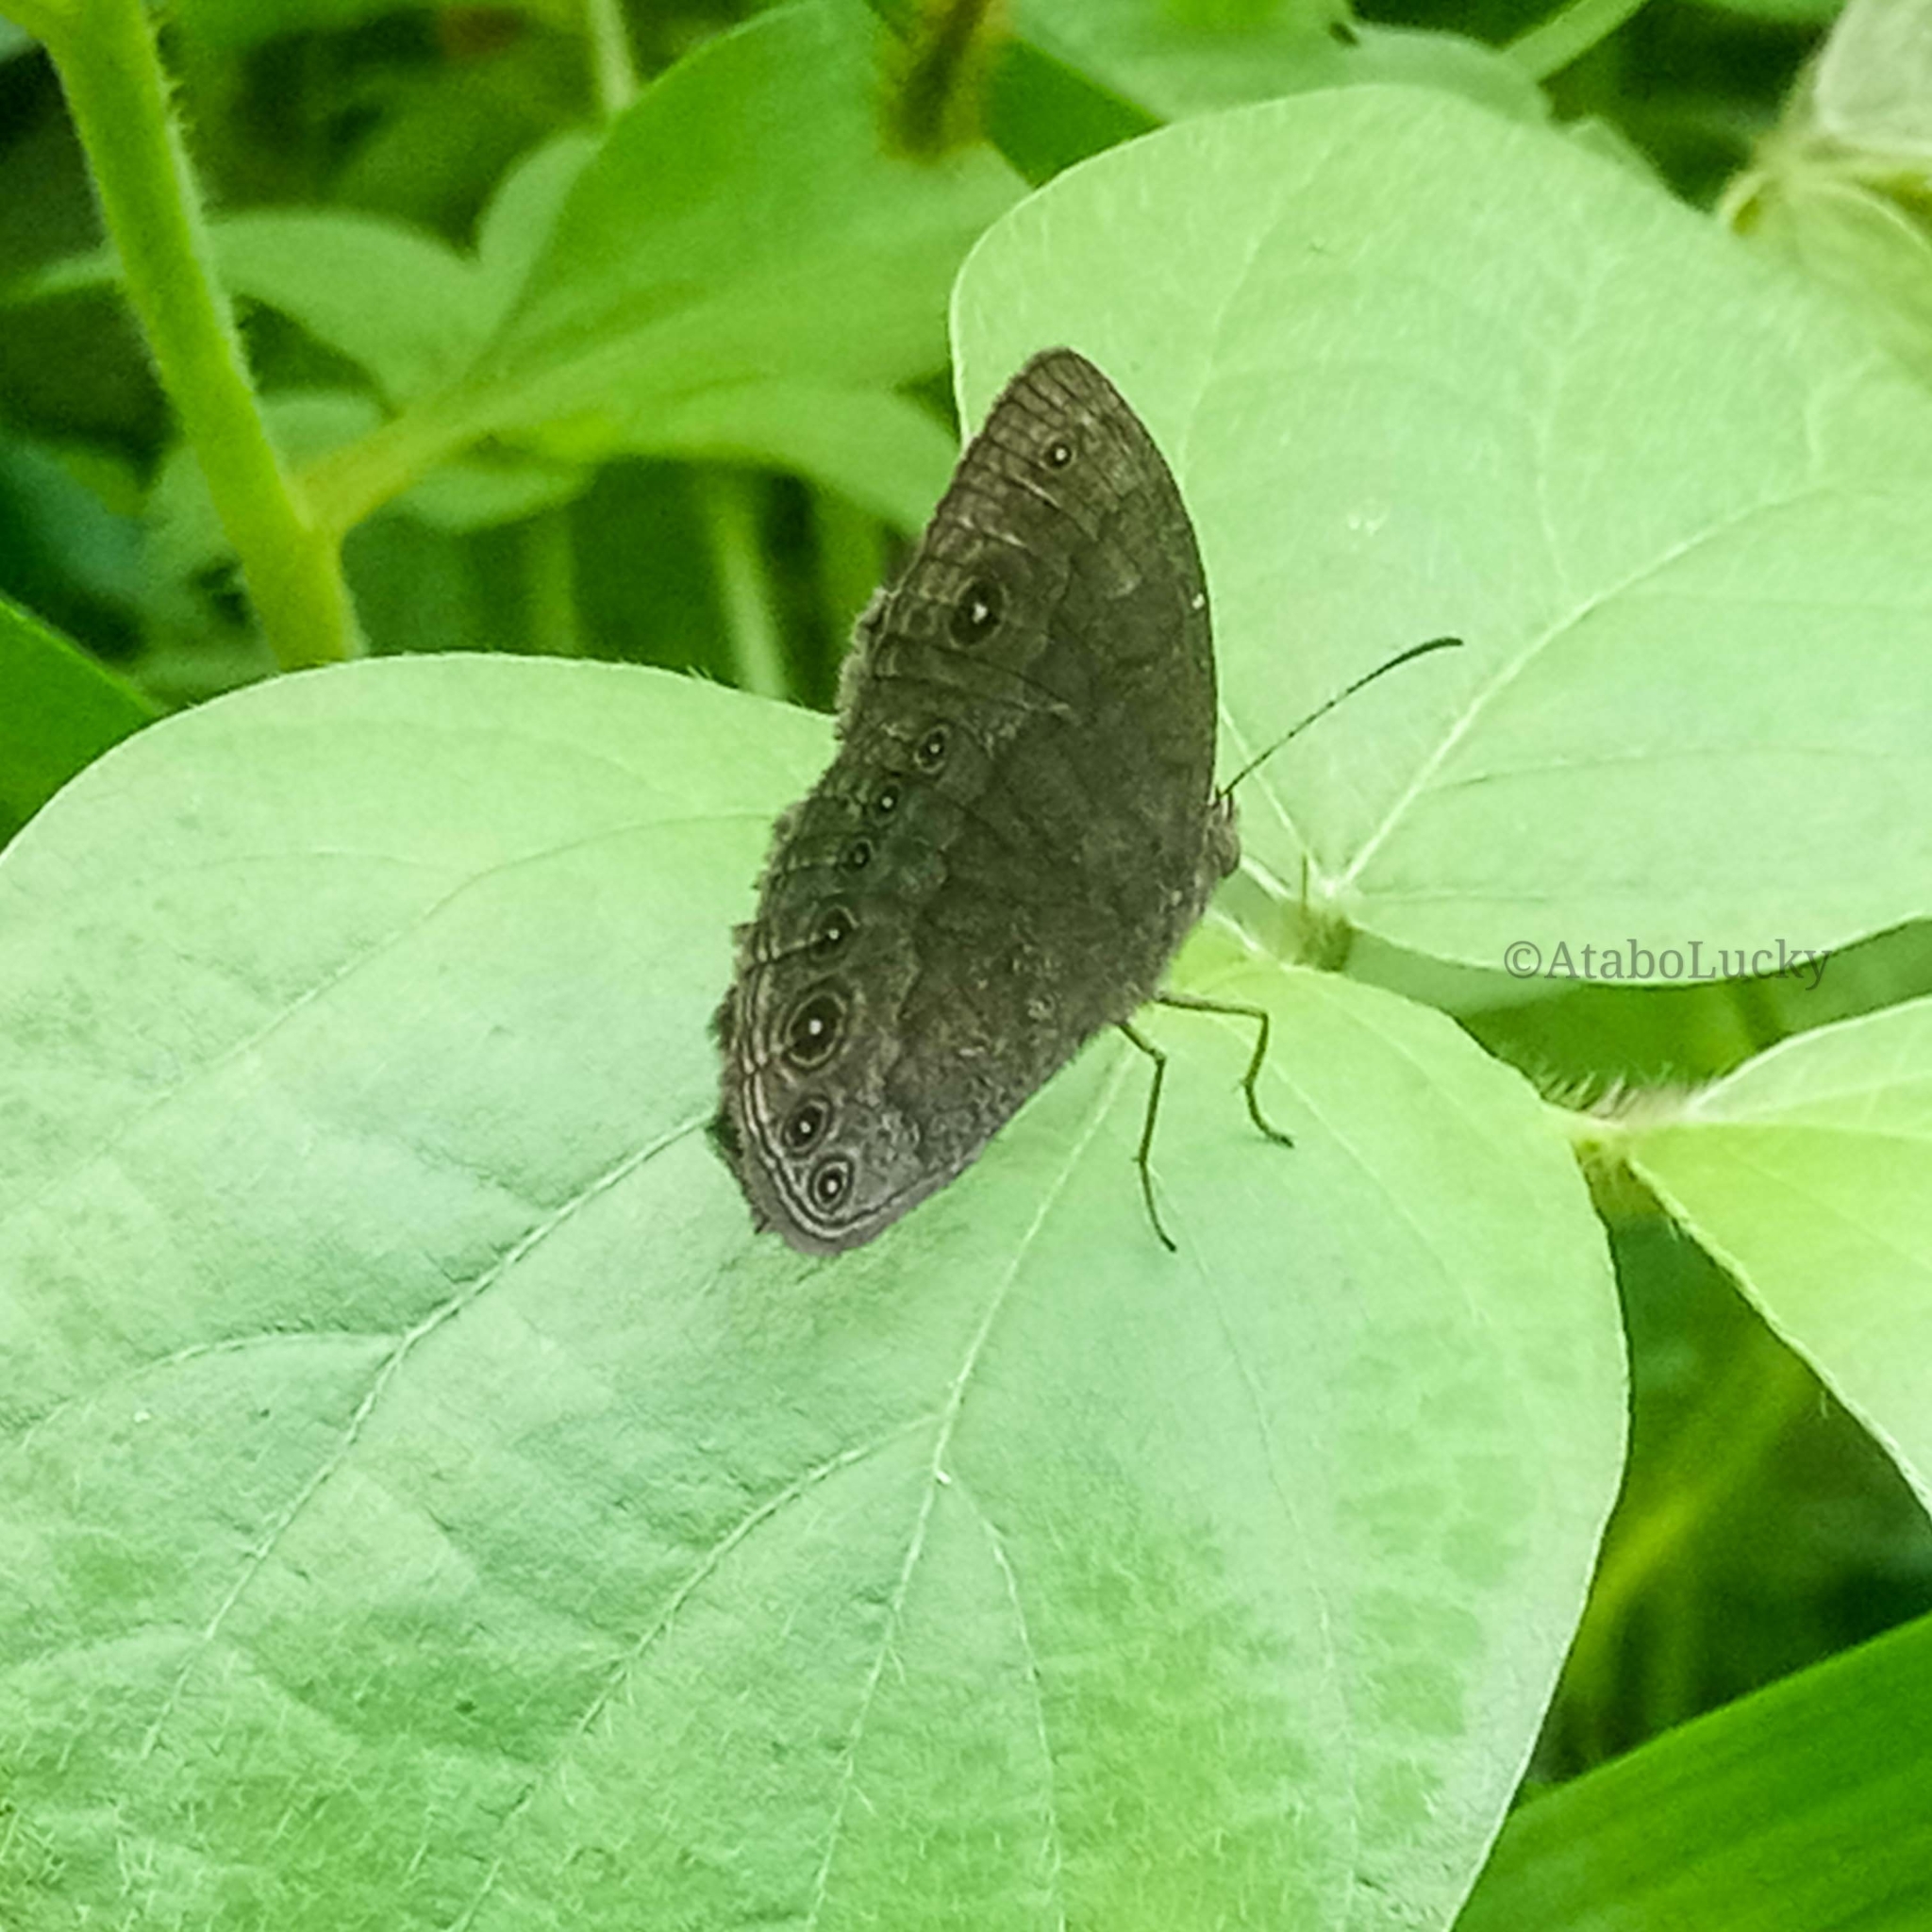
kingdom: Animalia
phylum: Arthropoda
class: Insecta
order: Lepidoptera
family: Nymphalidae
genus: Mycalesis
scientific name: Mycalesis vulgaris
